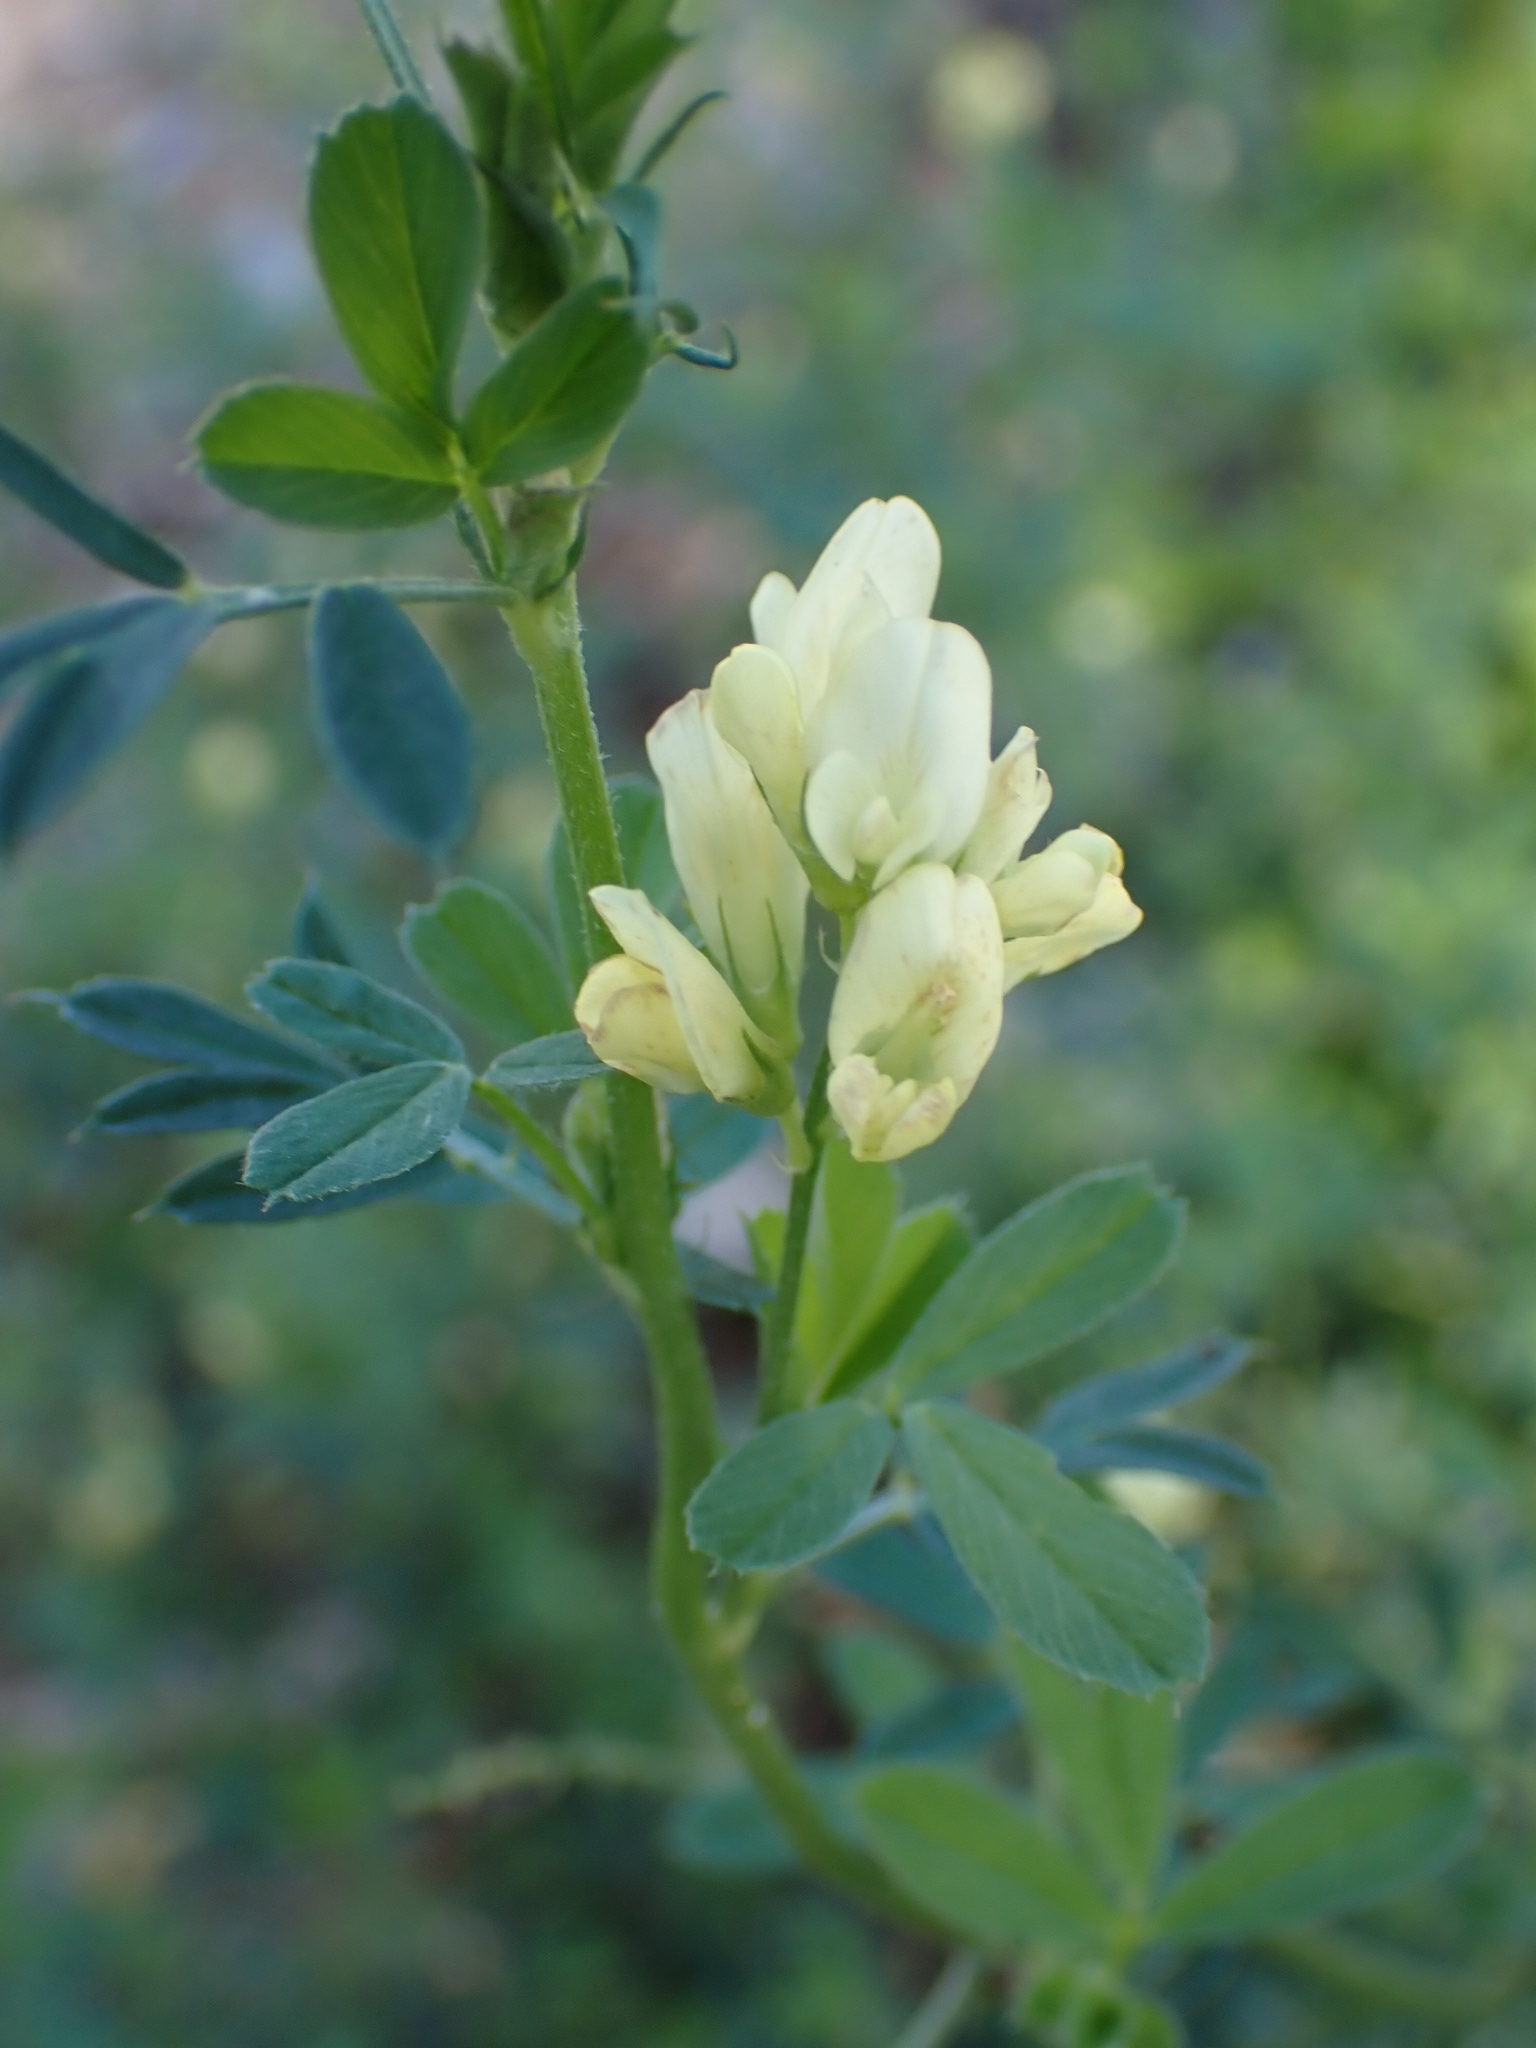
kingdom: Plantae
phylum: Tracheophyta
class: Magnoliopsida
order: Fabales
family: Fabaceae
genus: Medicago
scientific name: Medicago varia
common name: Sand lucerne
